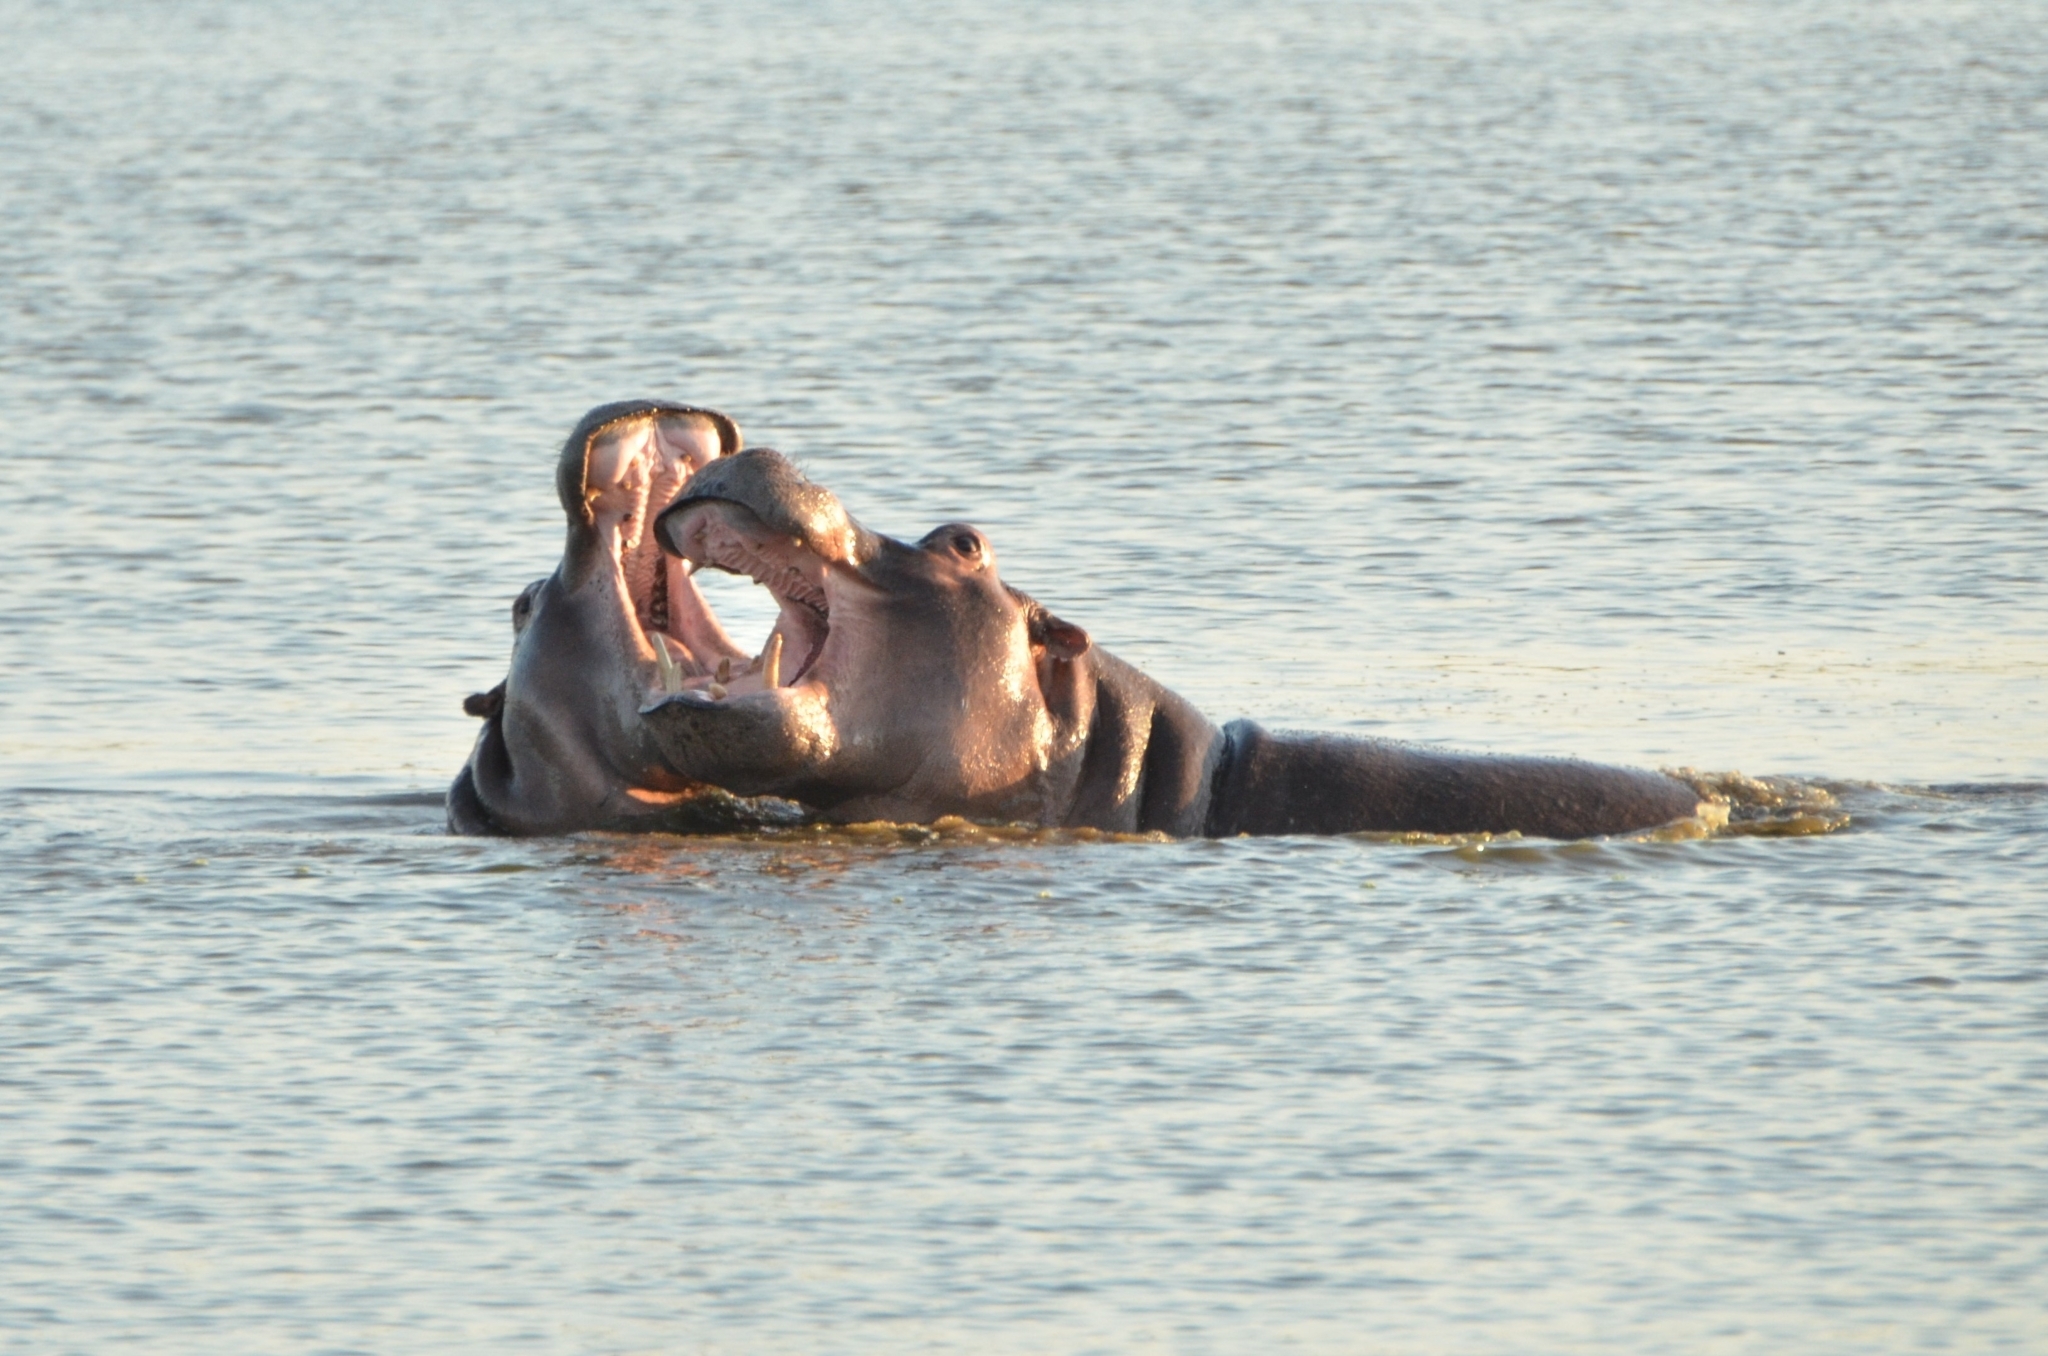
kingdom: Animalia
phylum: Chordata
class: Mammalia
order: Artiodactyla
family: Hippopotamidae
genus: Hippopotamus
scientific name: Hippopotamus amphibius
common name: Common hippopotamus
